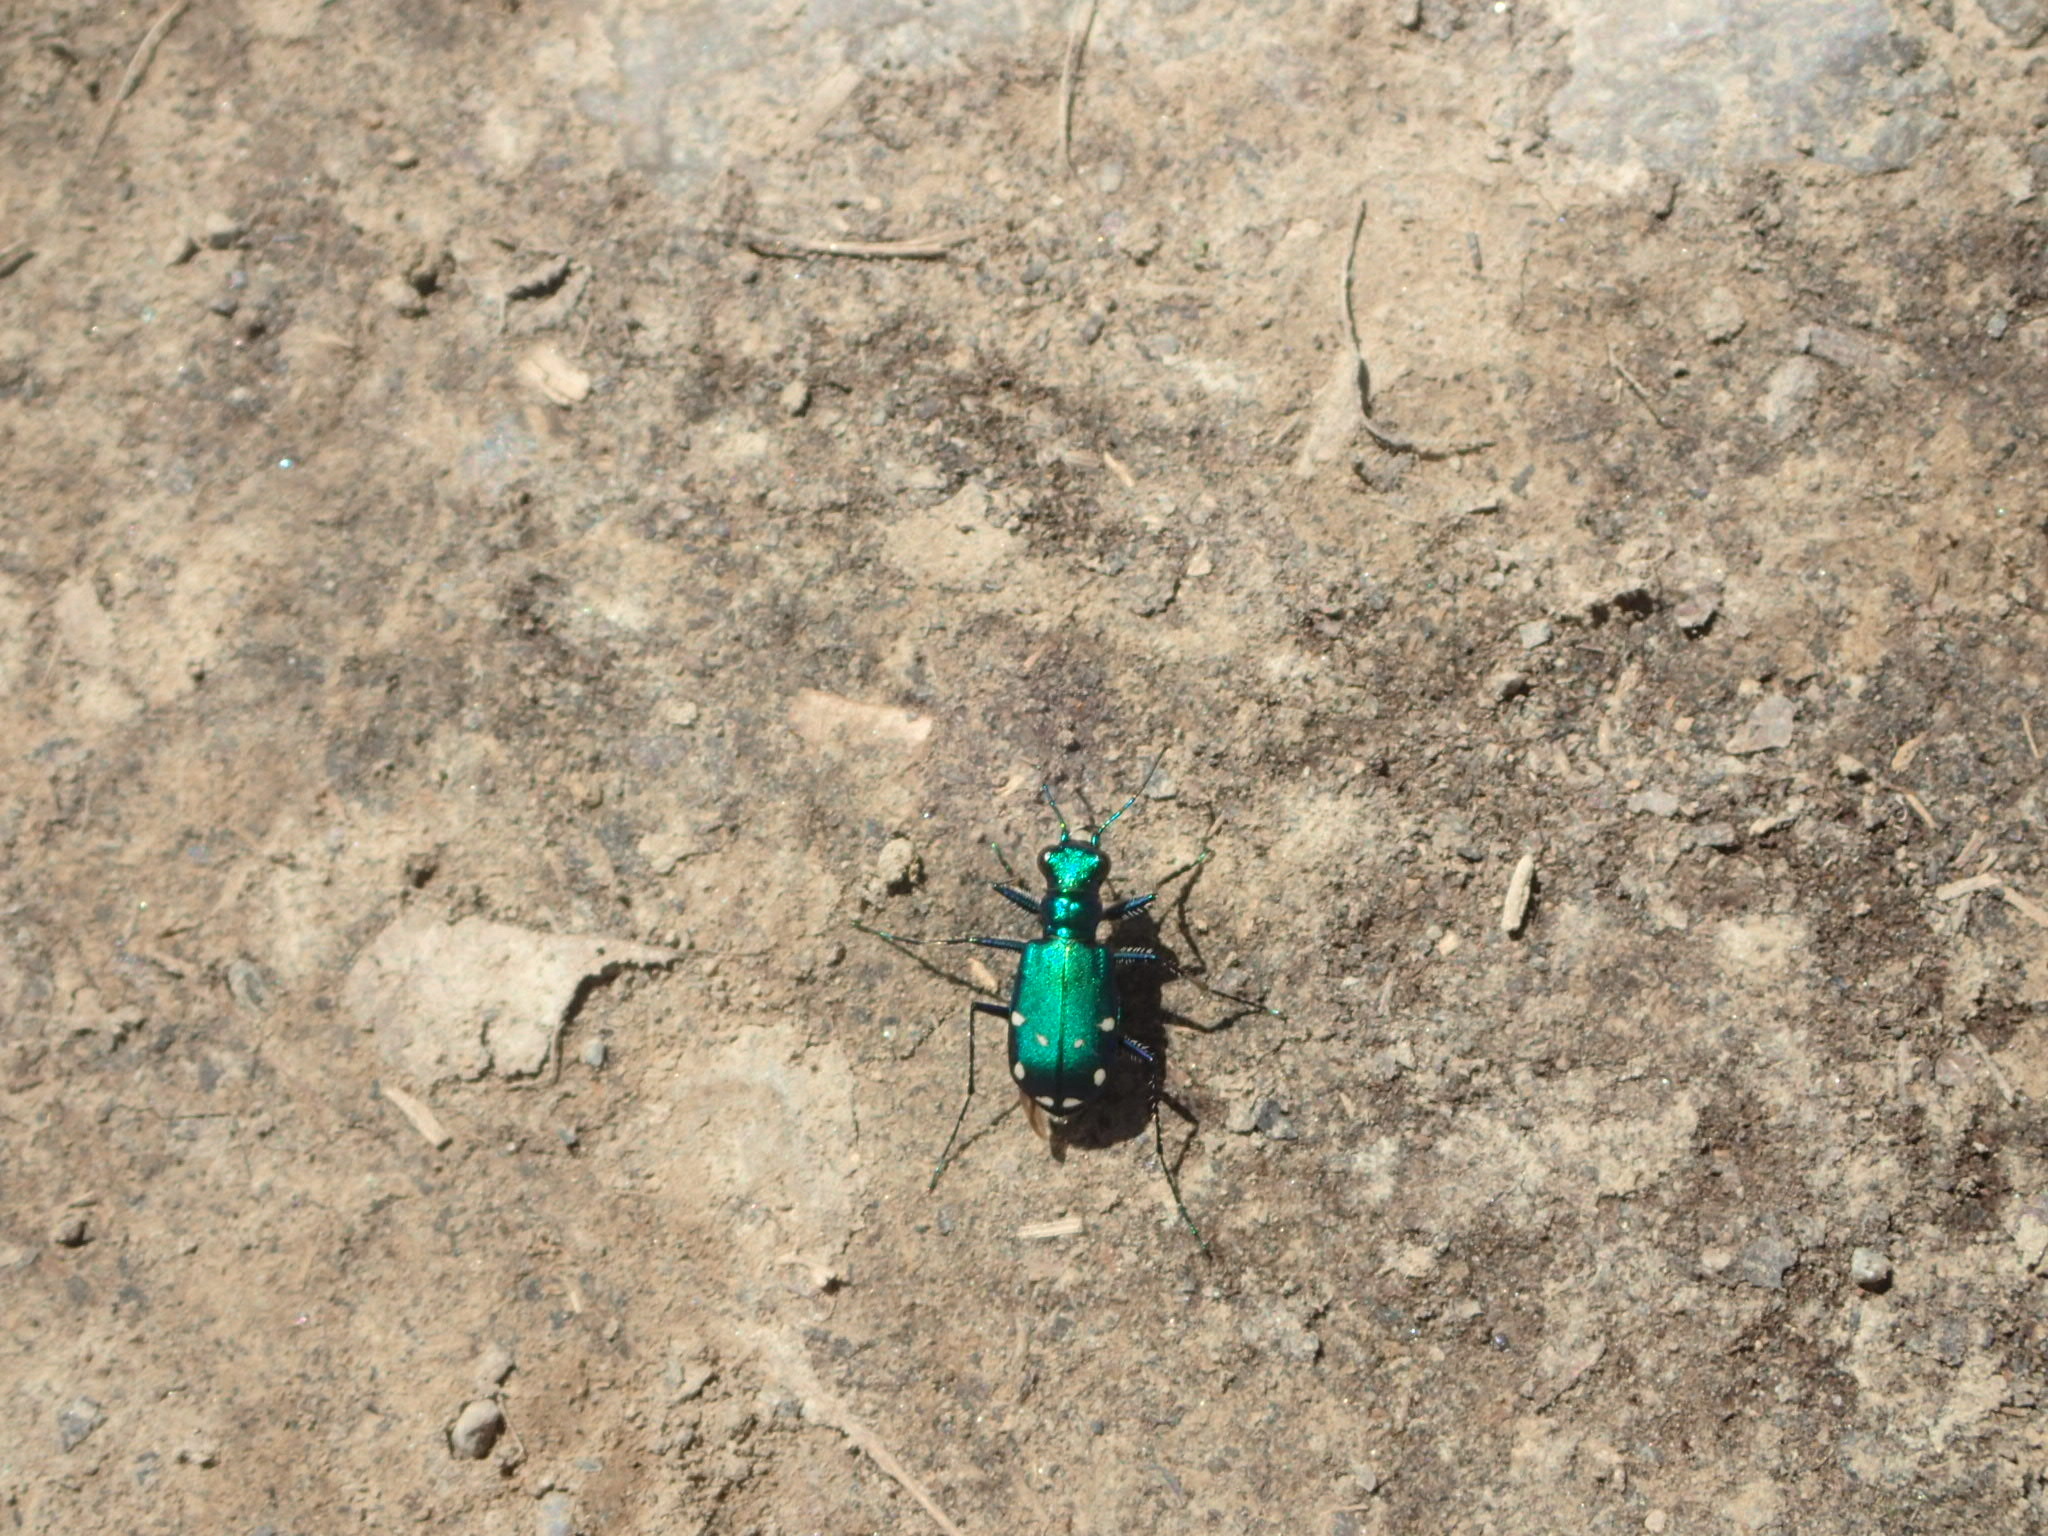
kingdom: Animalia
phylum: Arthropoda
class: Insecta
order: Coleoptera
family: Carabidae
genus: Cicindela
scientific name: Cicindela sexguttata
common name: Six-spotted tiger beetle
